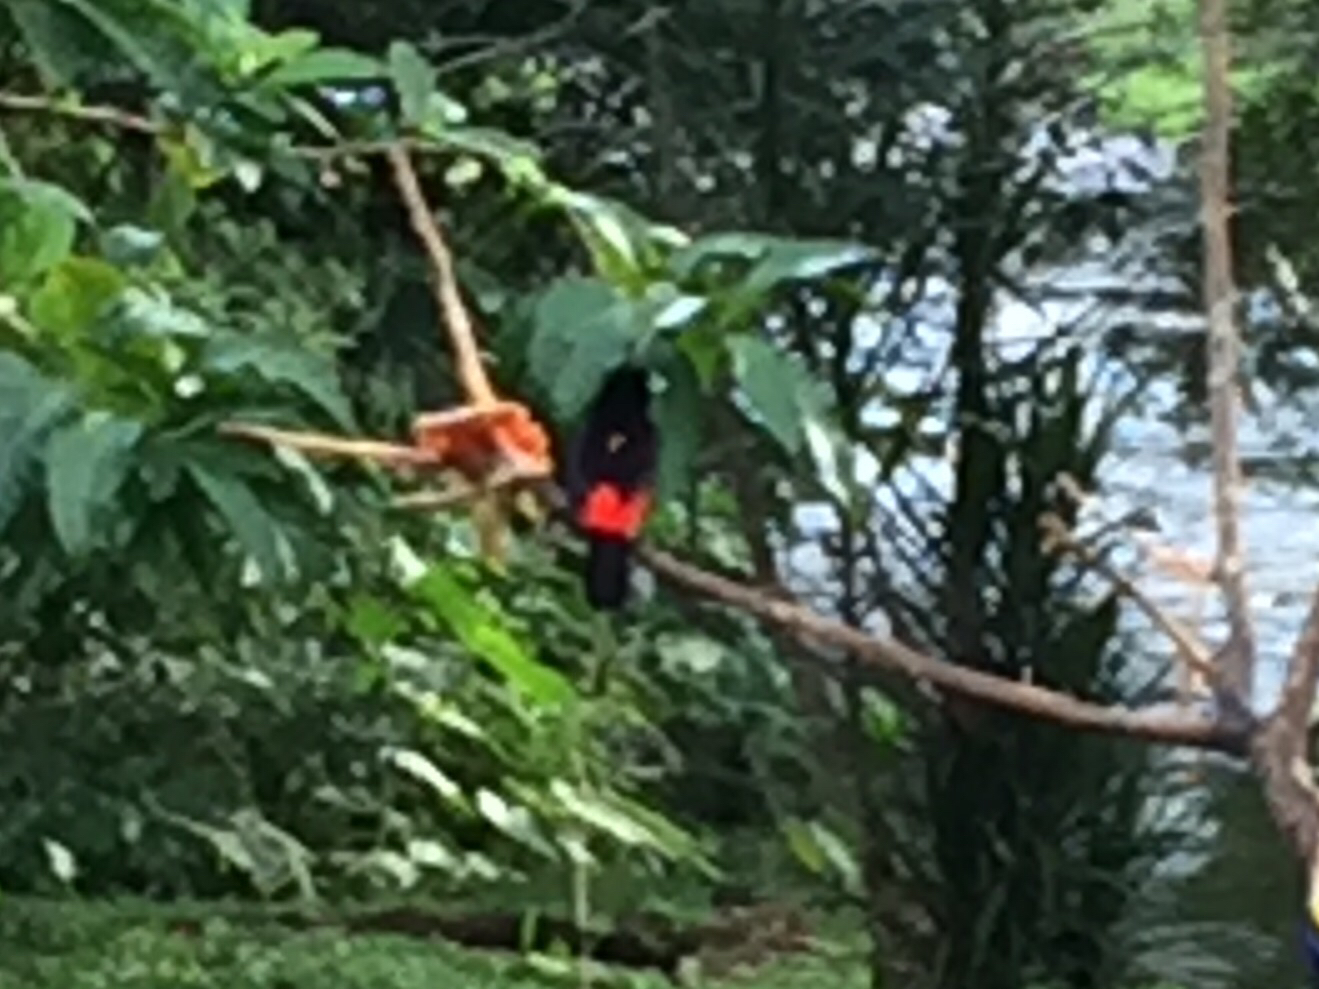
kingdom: Animalia
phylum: Chordata
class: Aves
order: Passeriformes
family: Thraupidae
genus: Ramphocelus
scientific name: Ramphocelus passerinii
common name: Passerini's tanager
